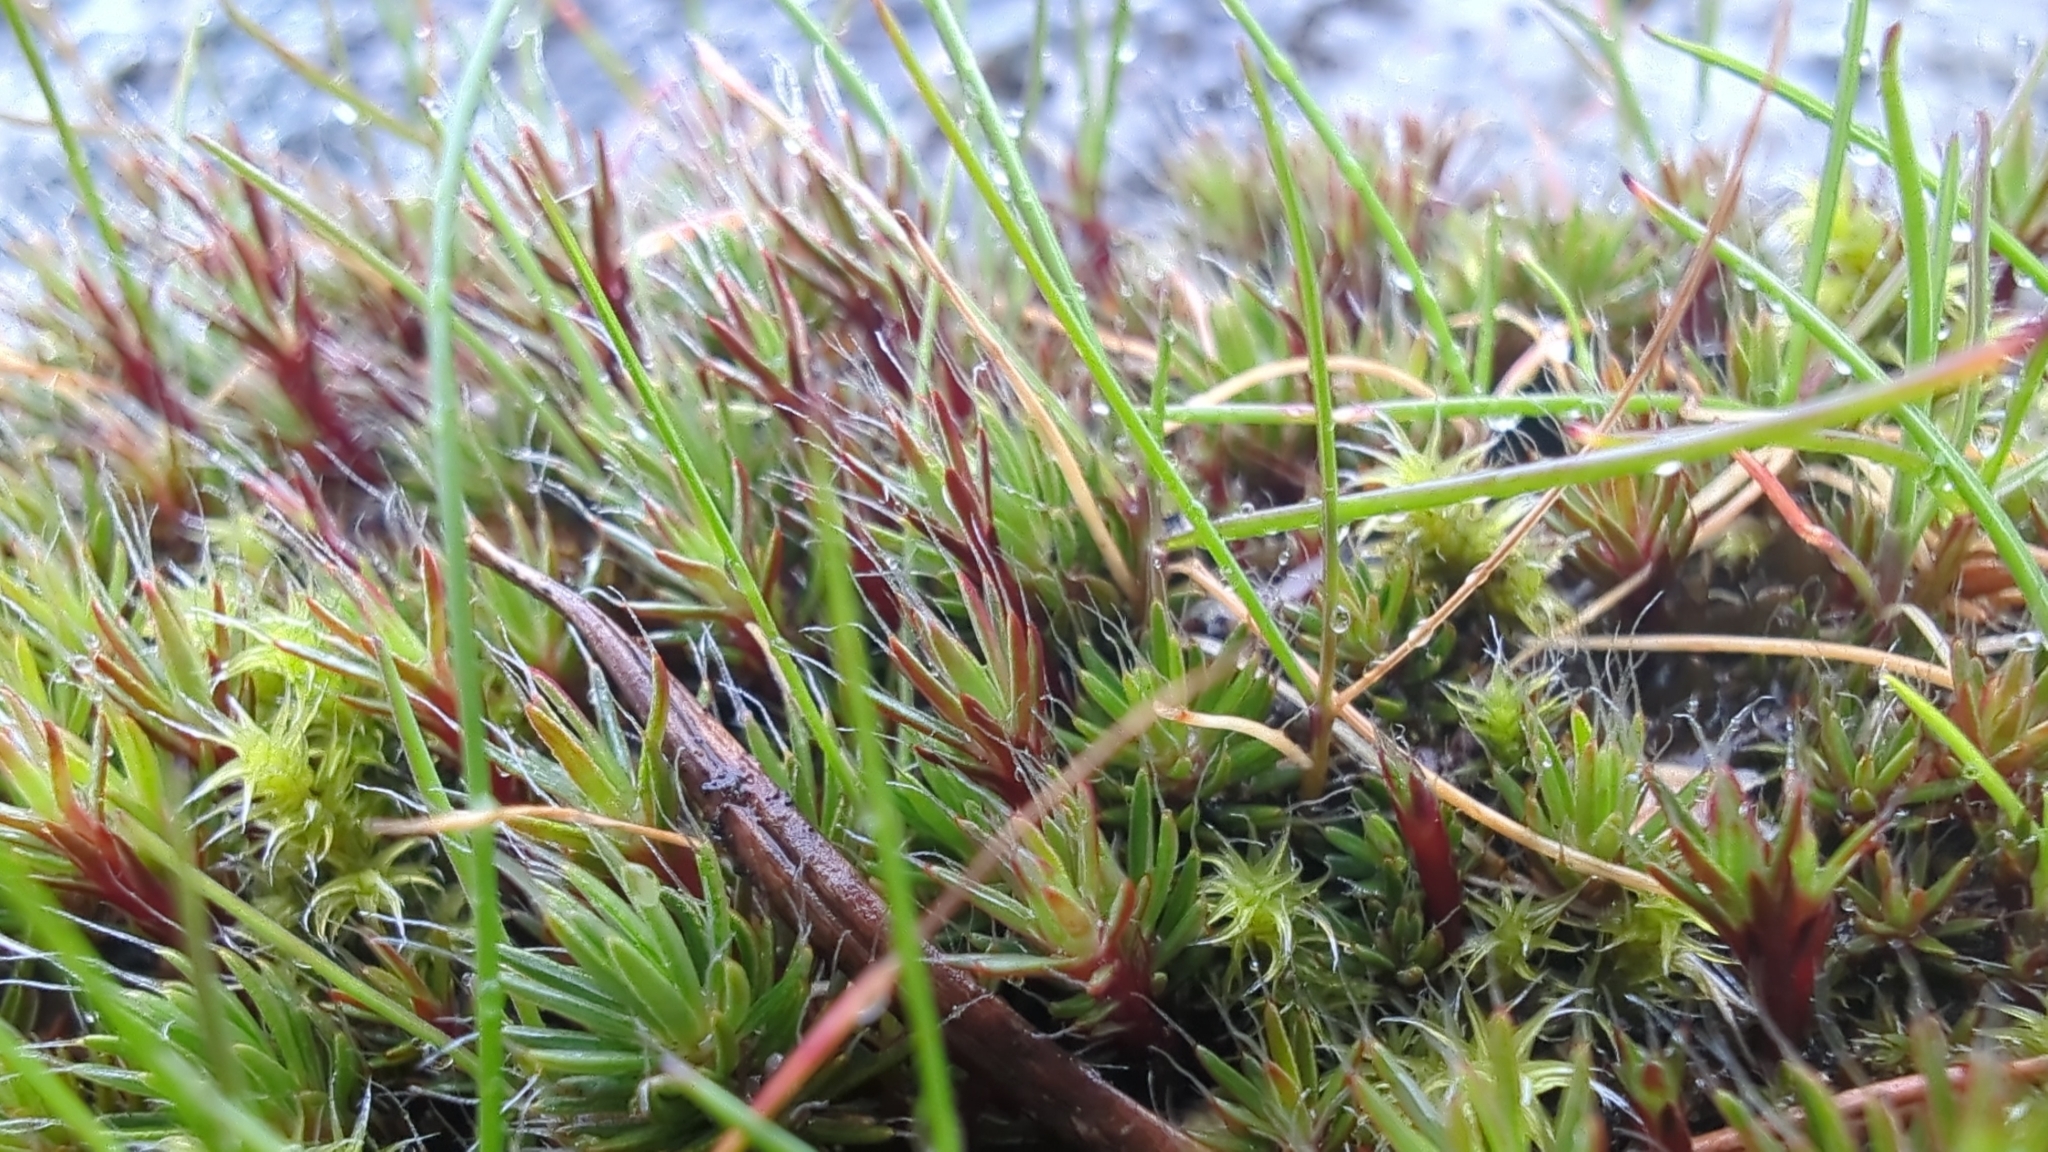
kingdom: Plantae
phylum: Bryophyta
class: Polytrichopsida
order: Polytrichales
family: Polytrichaceae
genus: Polytrichum
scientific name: Polytrichum piliferum
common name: Bristly haircap
